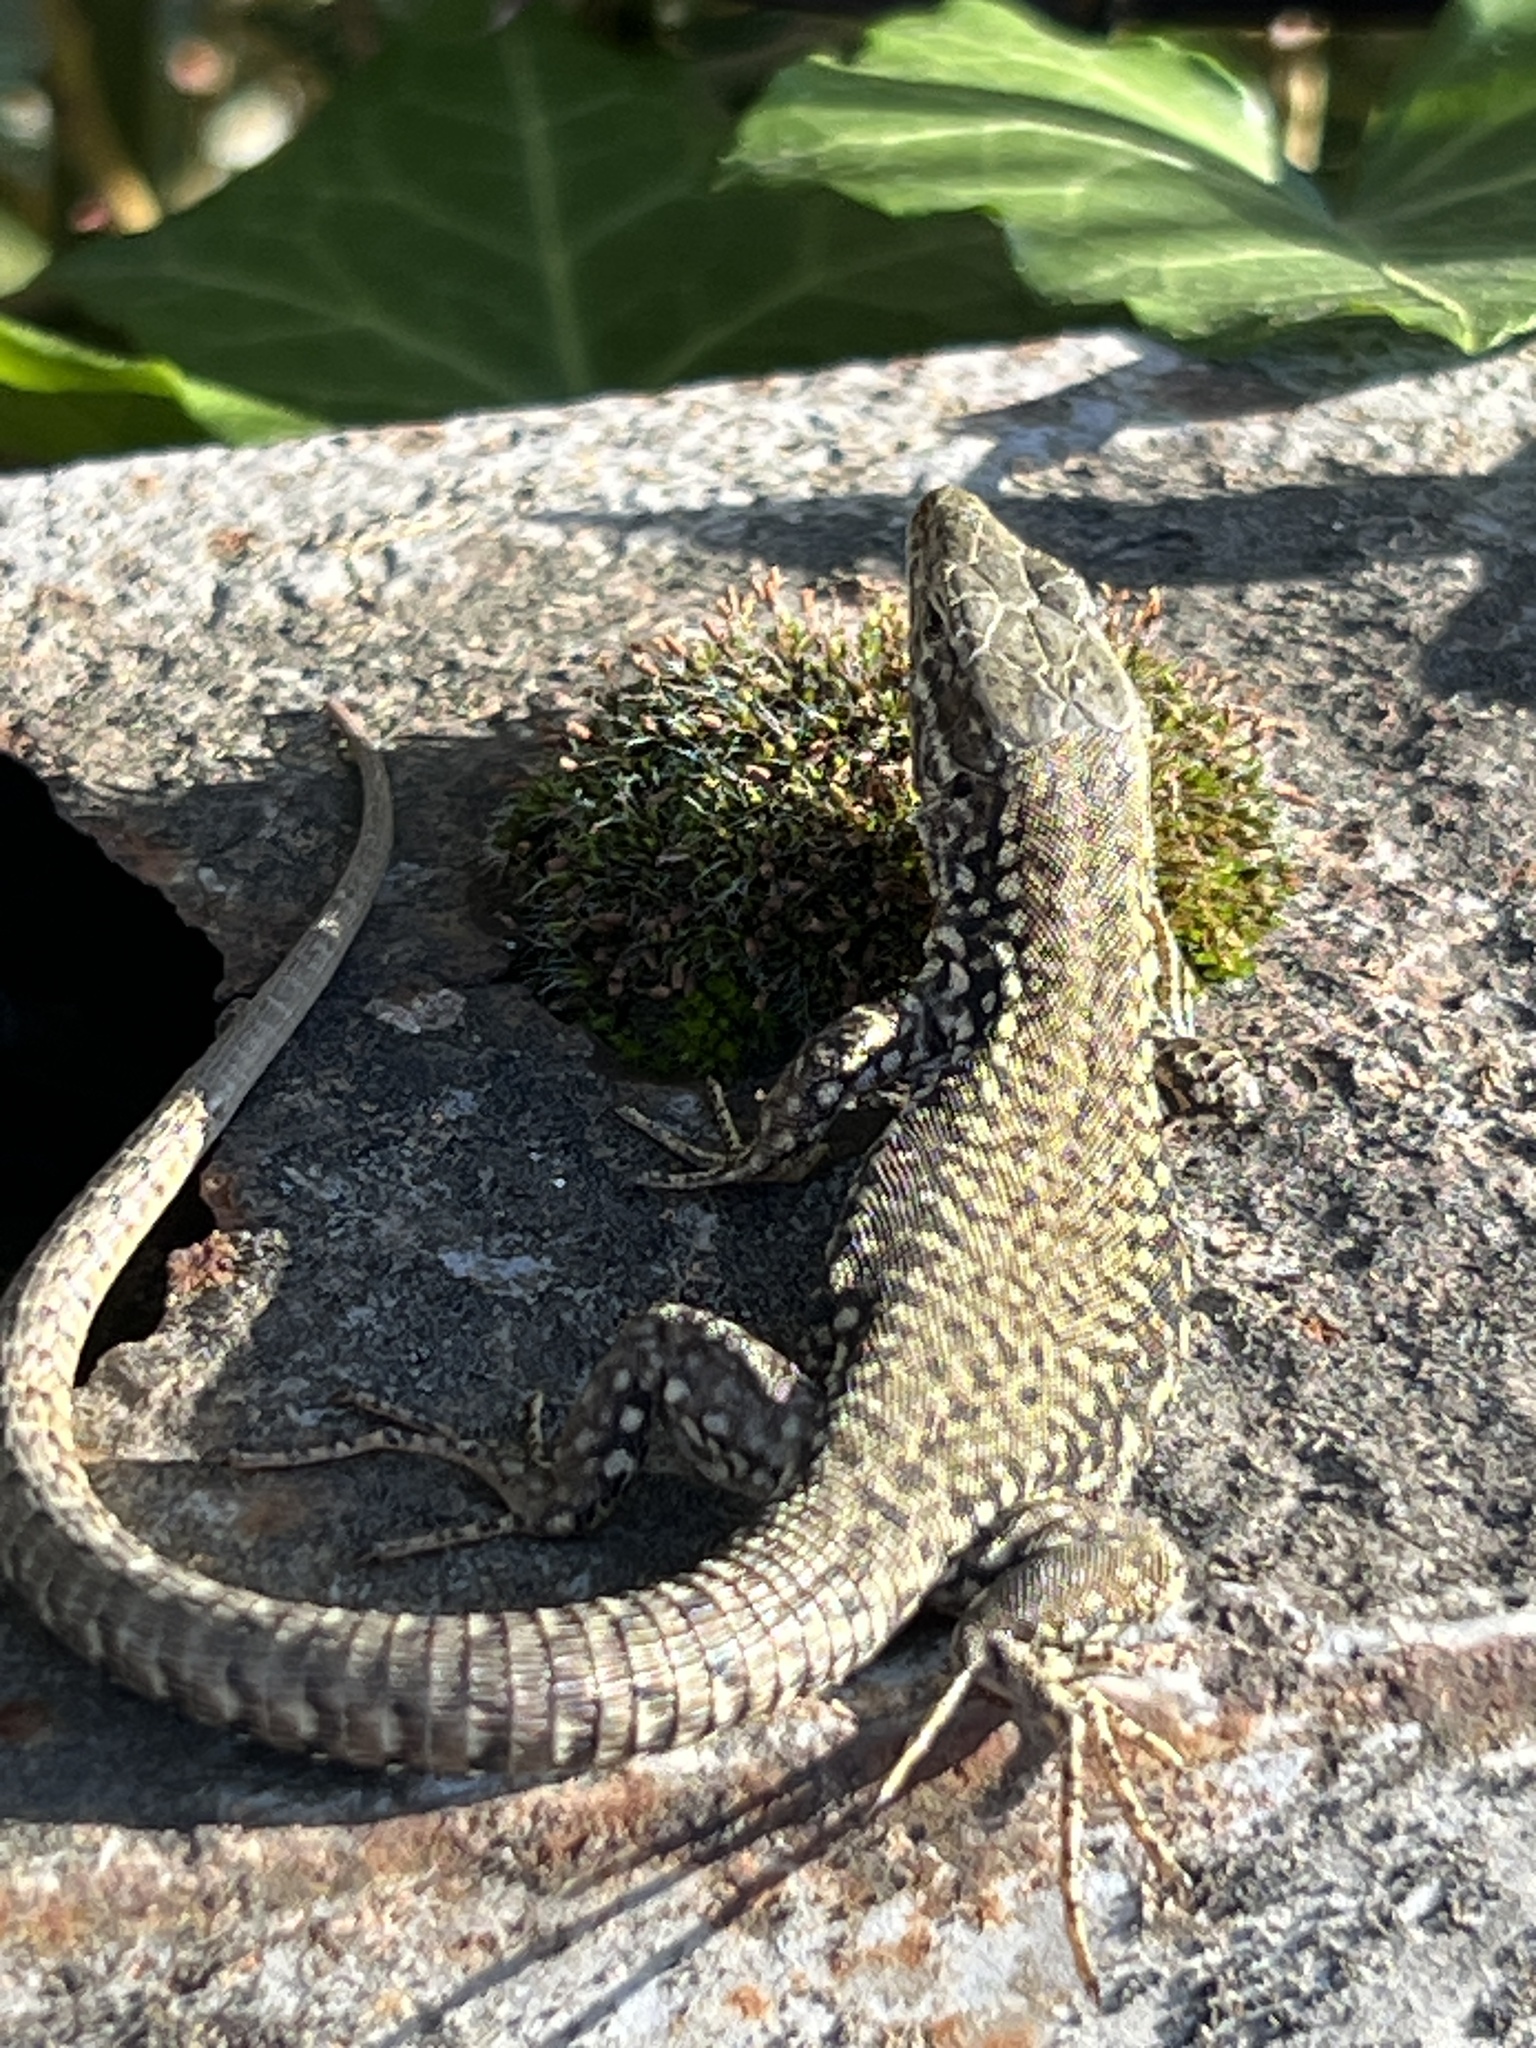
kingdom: Animalia
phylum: Chordata
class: Squamata
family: Lacertidae
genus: Podarcis
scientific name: Podarcis muralis
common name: Common wall lizard
